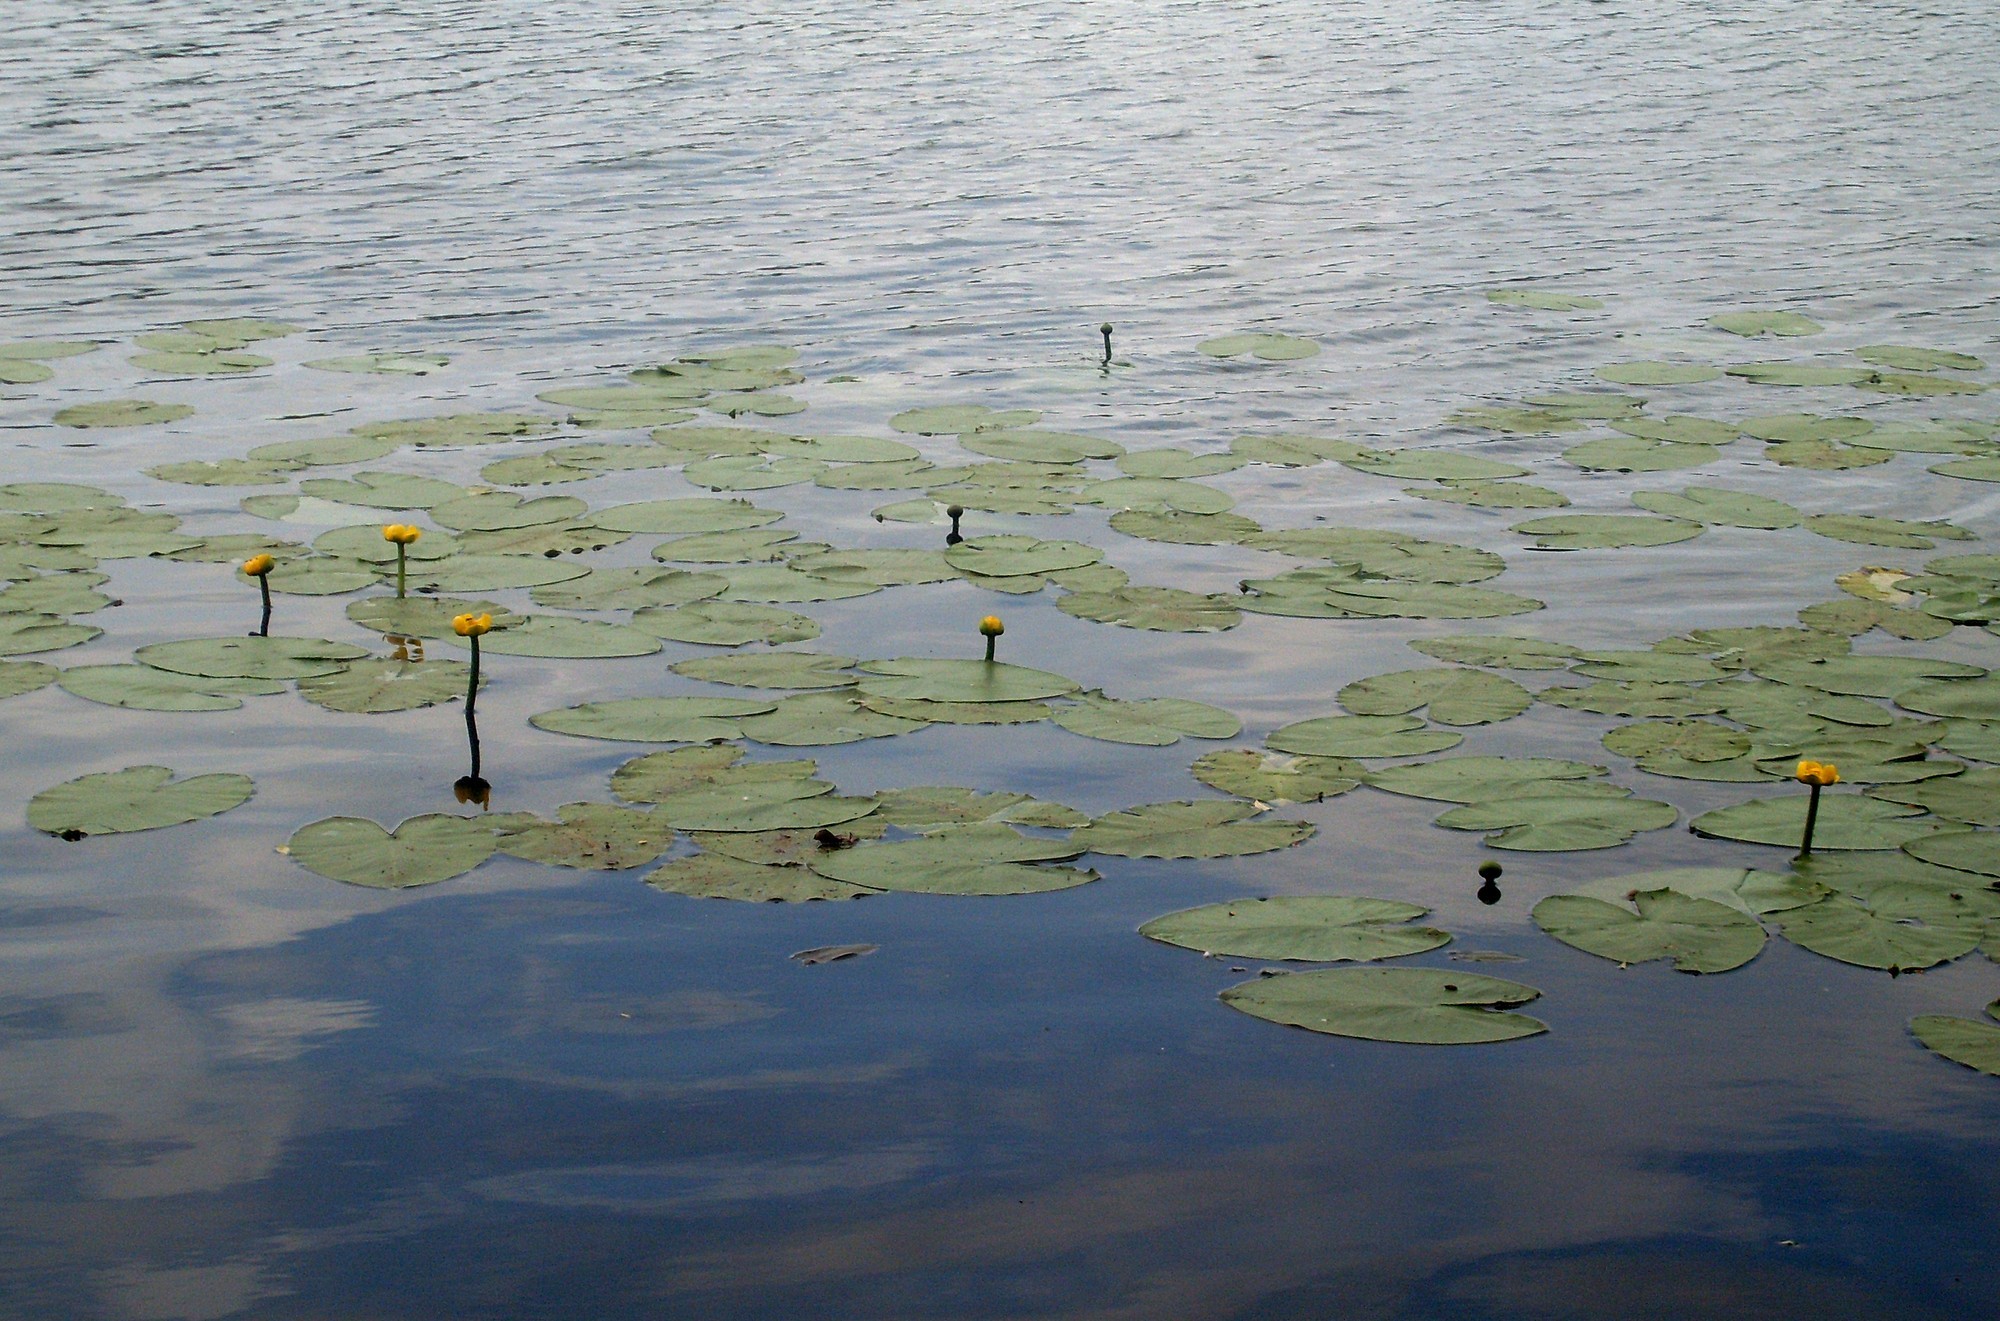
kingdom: Plantae
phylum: Tracheophyta
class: Magnoliopsida
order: Nymphaeales
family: Nymphaeaceae
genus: Nuphar
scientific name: Nuphar lutea
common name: Yellow water-lily
